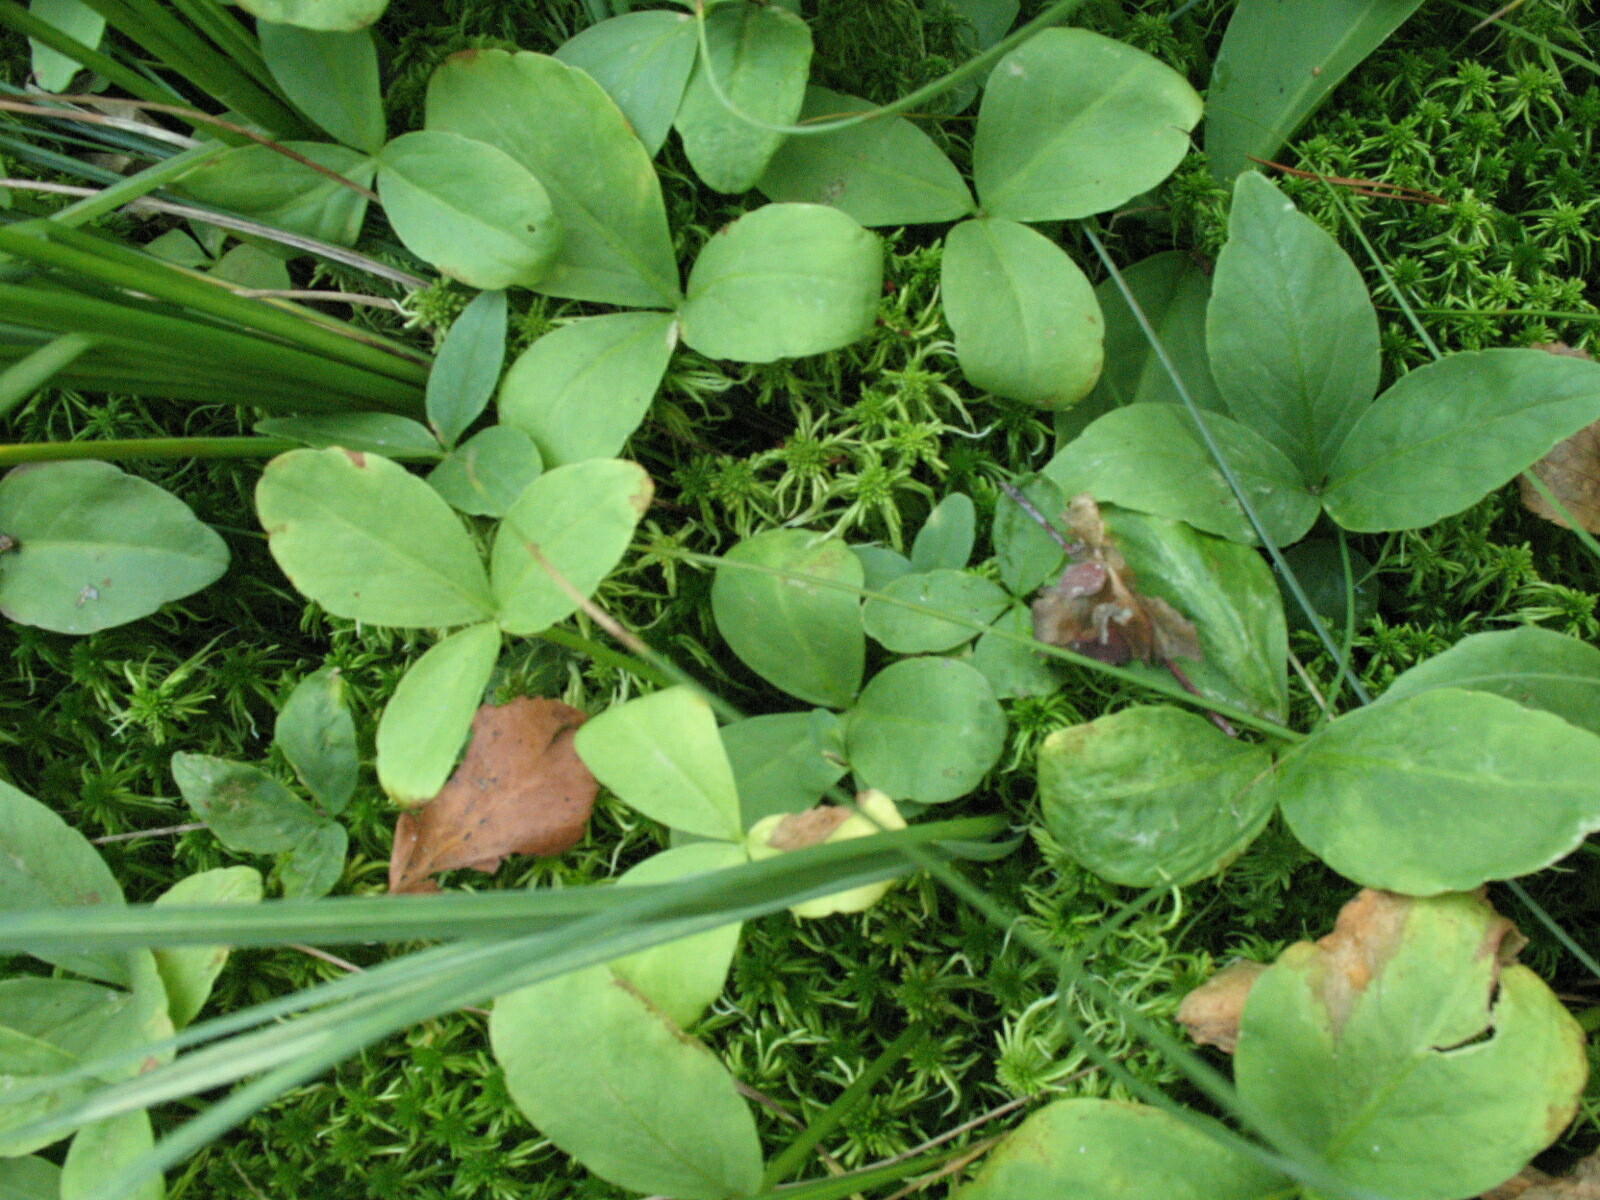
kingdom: Plantae
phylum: Tracheophyta
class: Magnoliopsida
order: Asterales
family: Menyanthaceae
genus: Menyanthes
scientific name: Menyanthes trifoliata
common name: Bogbean
